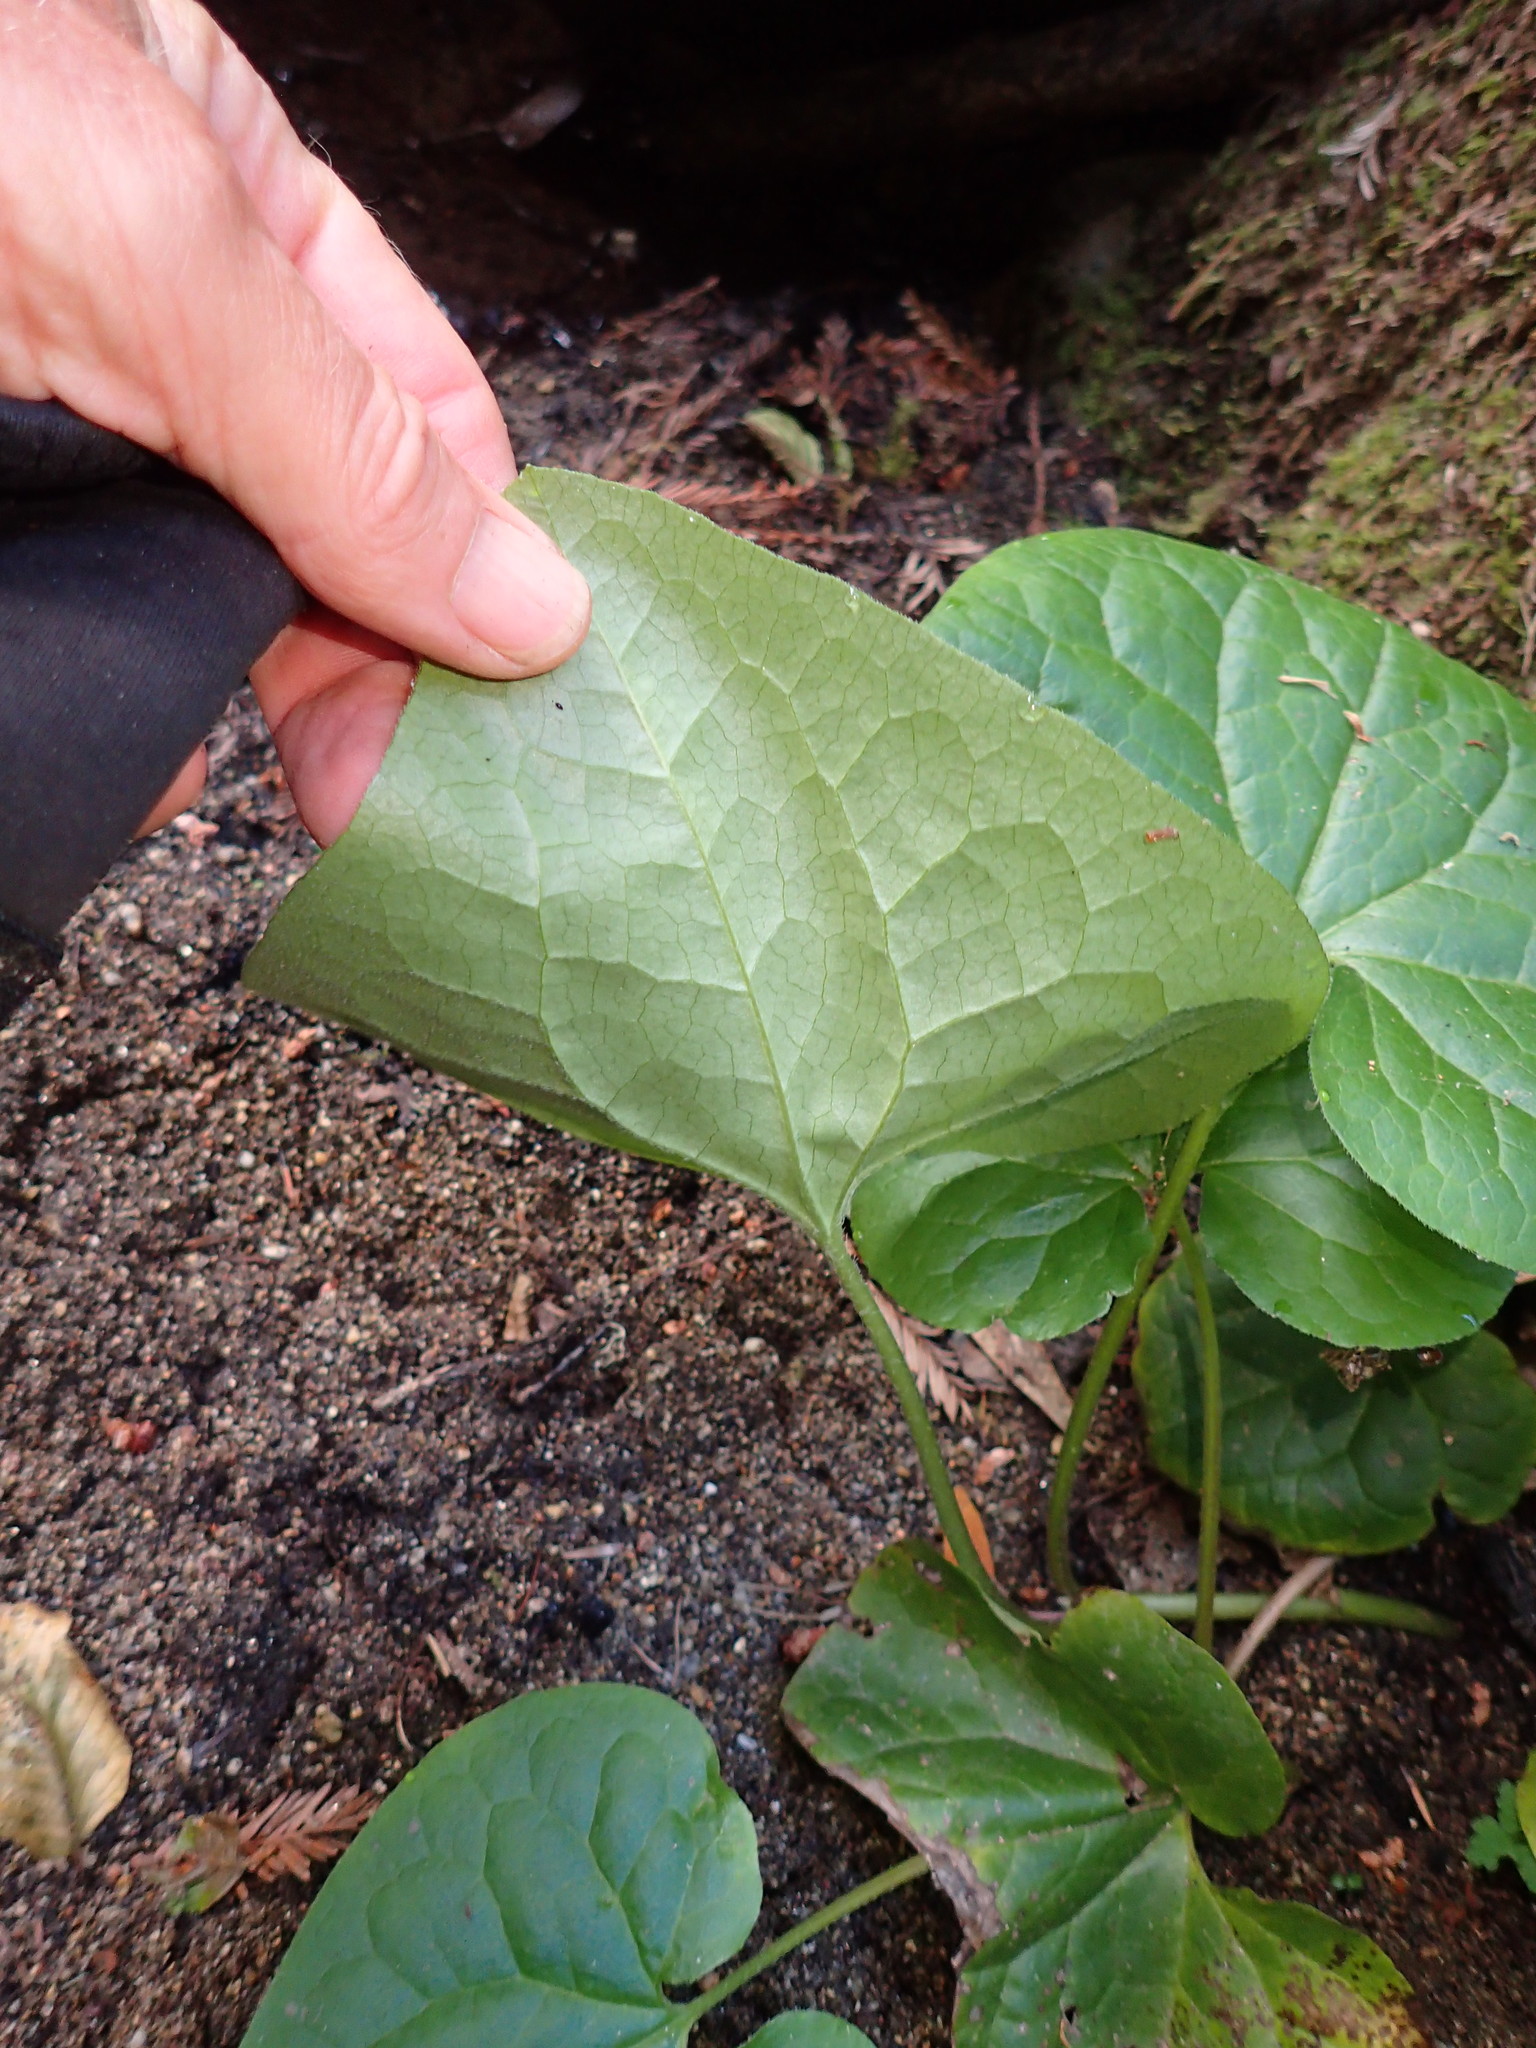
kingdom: Plantae
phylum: Tracheophyta
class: Magnoliopsida
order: Piperales
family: Aristolochiaceae
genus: Asarum
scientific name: Asarum caudatum
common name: Wild ginger
